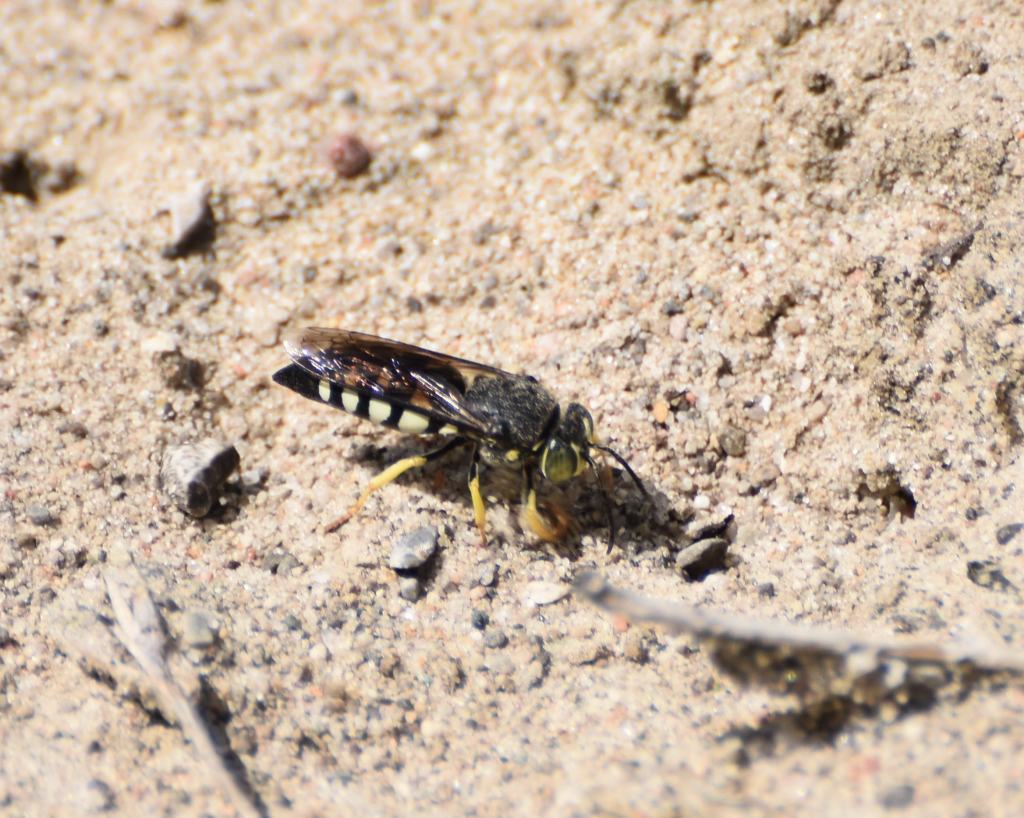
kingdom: Animalia
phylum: Arthropoda
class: Insecta
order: Hymenoptera
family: Crabronidae
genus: Bicyrtes
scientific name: Bicyrtes quadrifasciatus
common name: Four-banded stink bug hunter wasp
